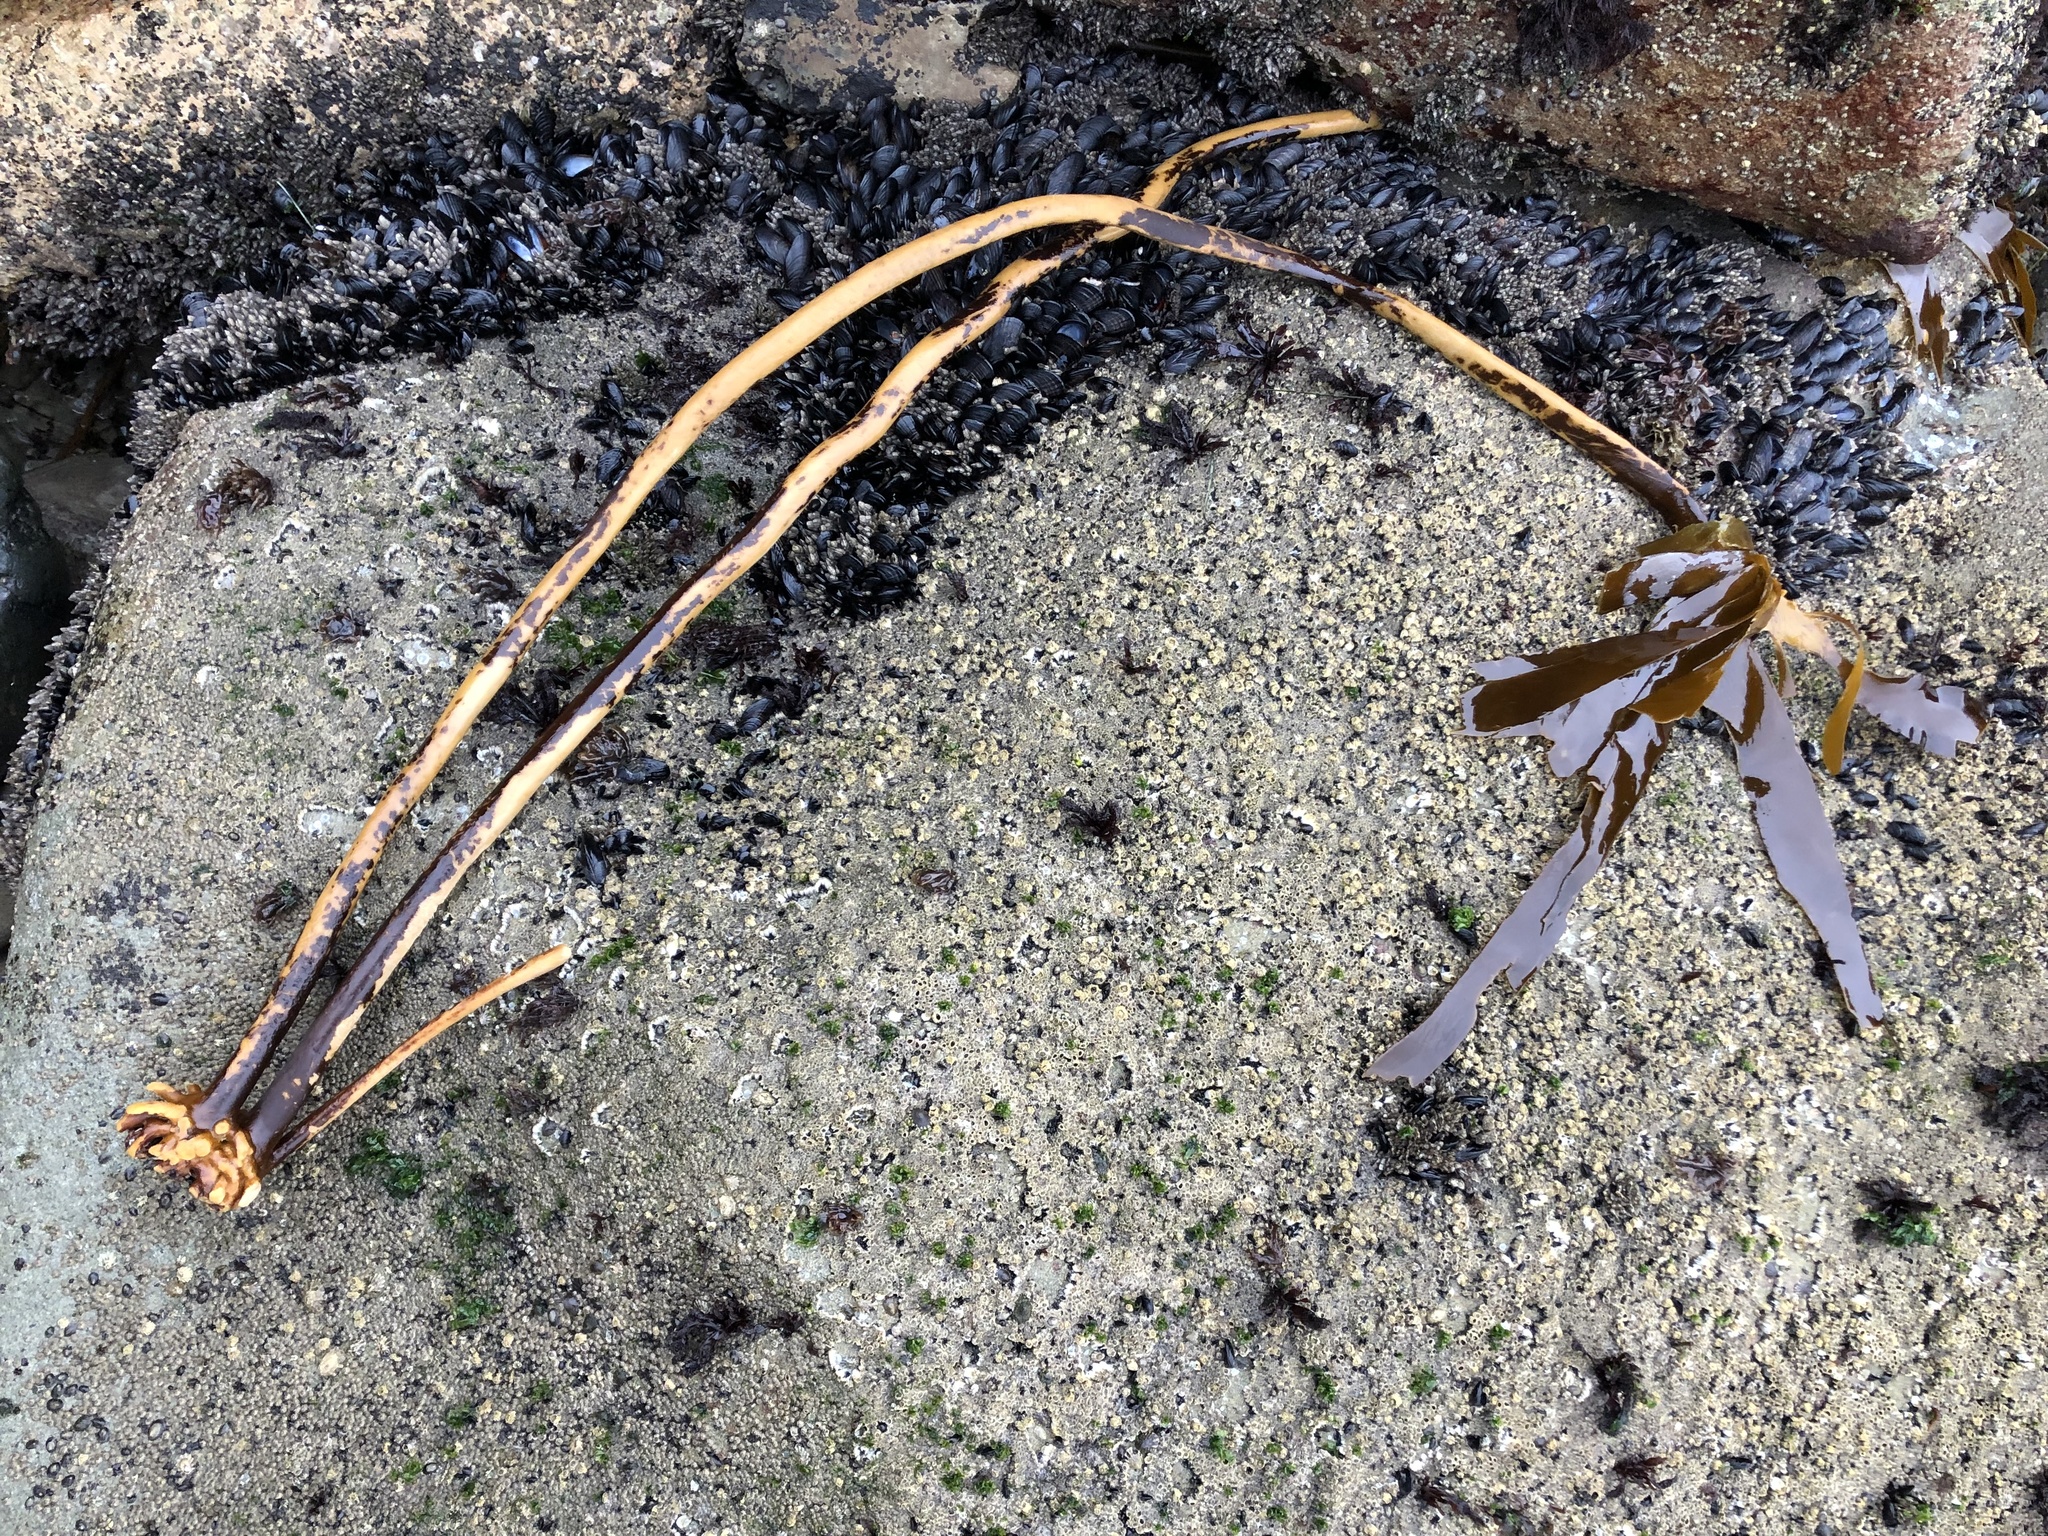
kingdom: Chromista
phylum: Ochrophyta
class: Phaeophyceae
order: Laminariales
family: Alariaceae
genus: Pterygophora
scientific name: Pterygophora californica
